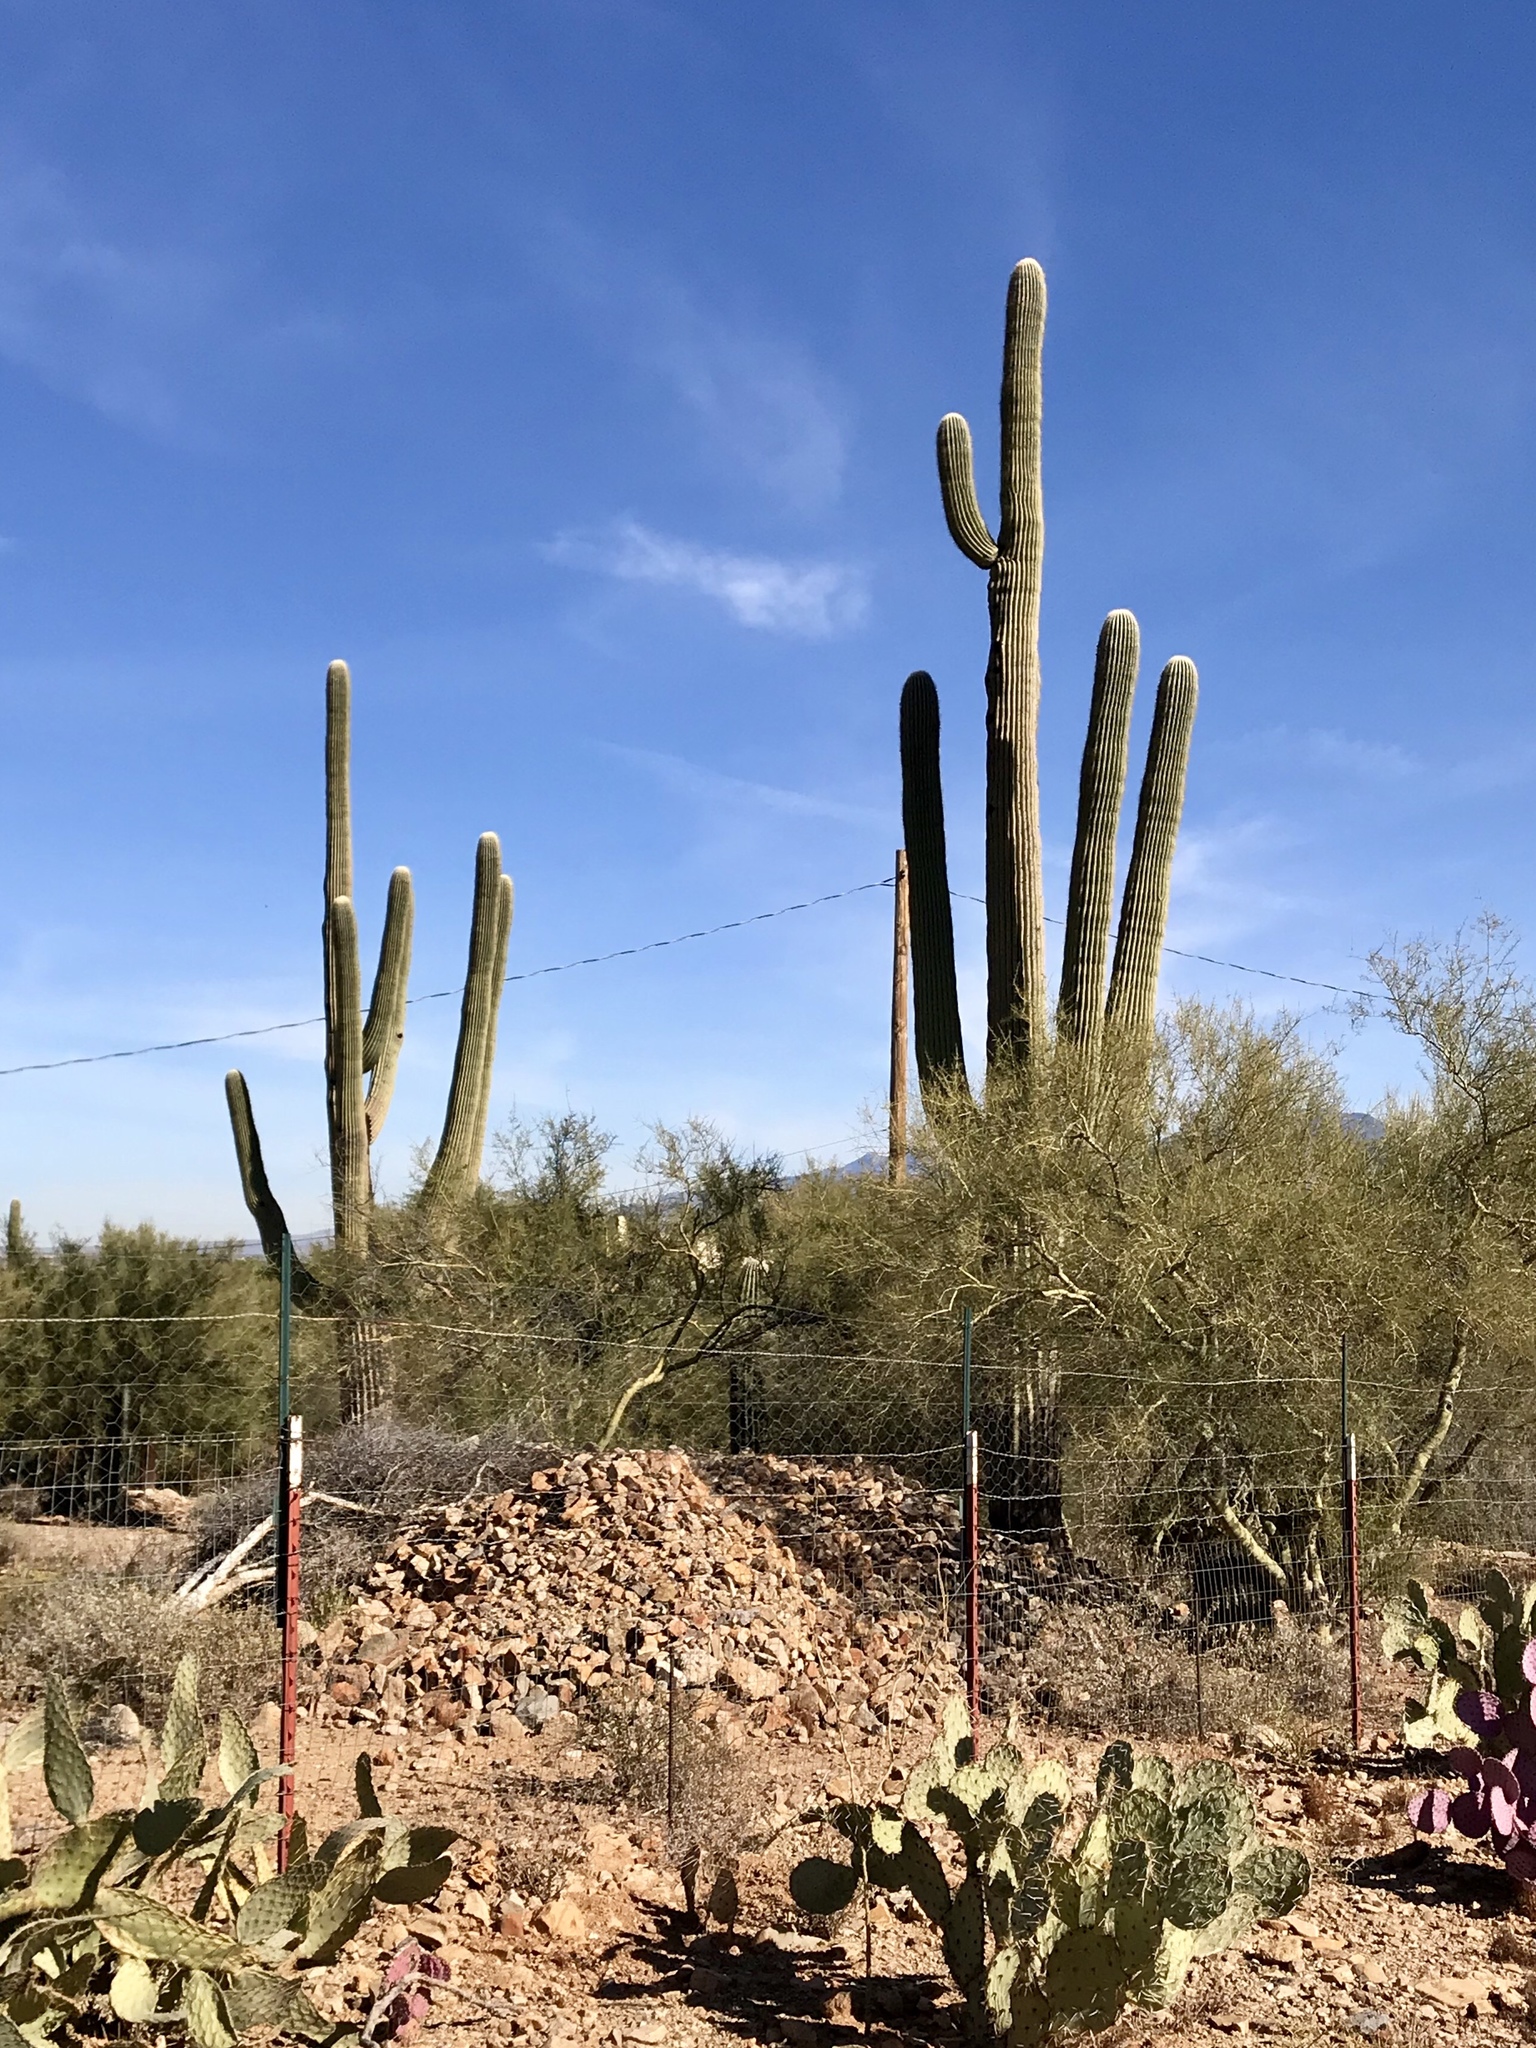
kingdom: Plantae
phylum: Tracheophyta
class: Magnoliopsida
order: Caryophyllales
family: Cactaceae
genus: Carnegiea
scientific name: Carnegiea gigantea
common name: Saguaro
